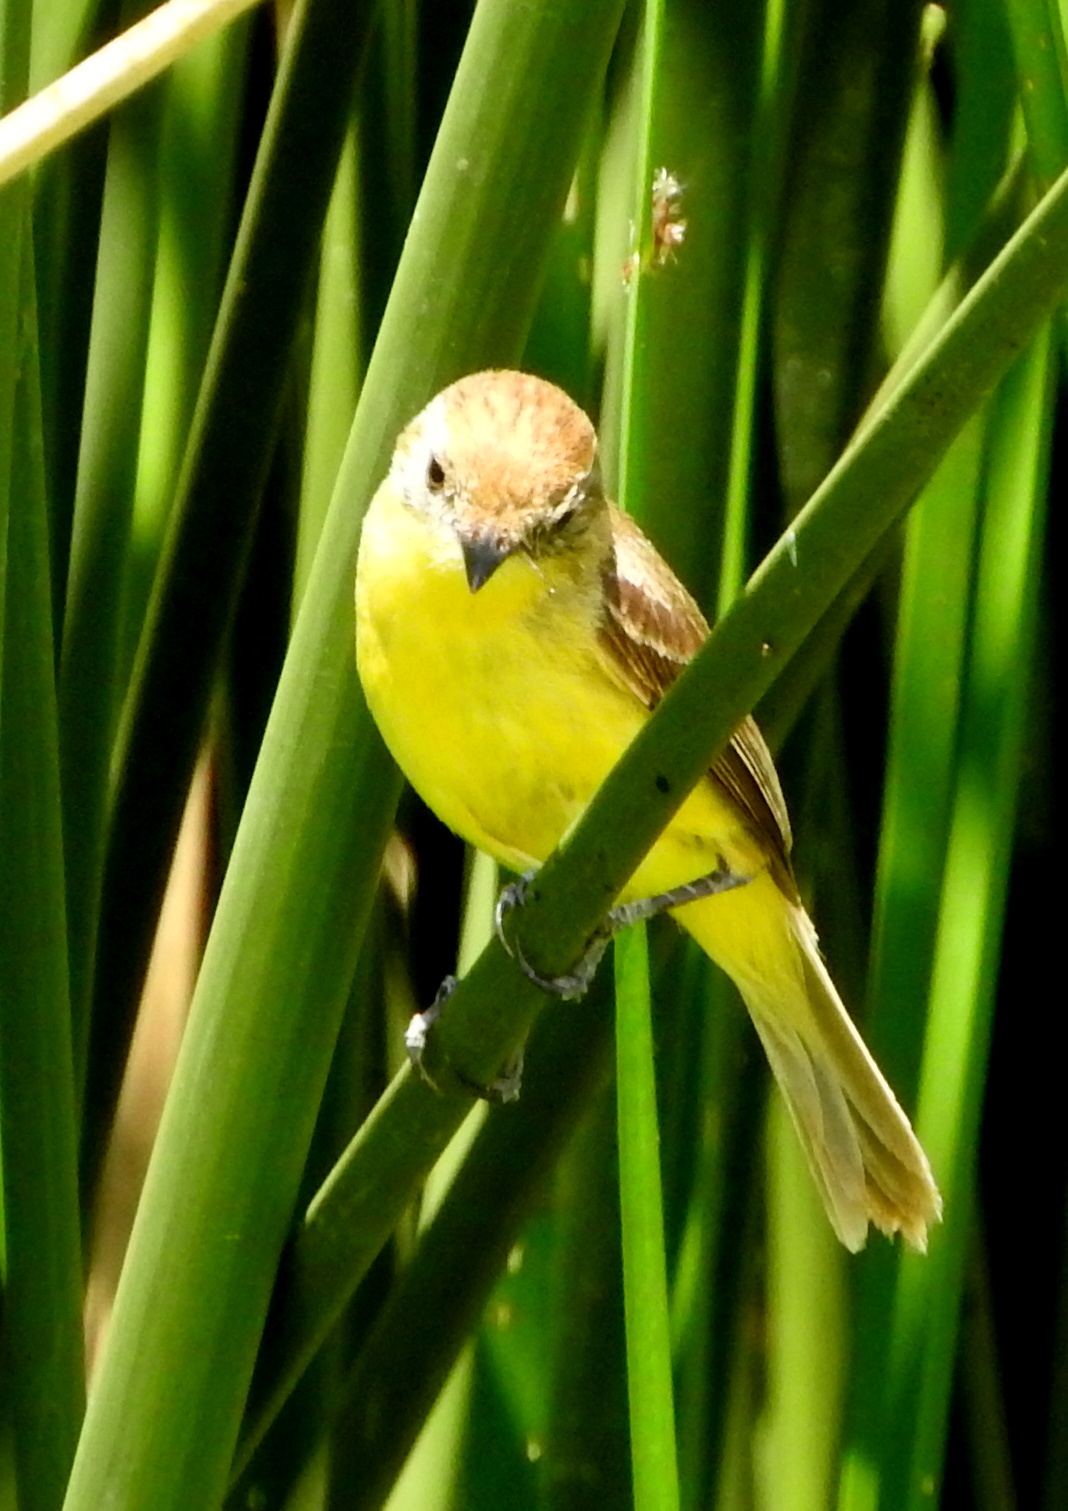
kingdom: Animalia
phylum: Chordata
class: Aves
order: Passeriformes
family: Tyrannidae
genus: Pseudocolopteryx
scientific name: Pseudocolopteryx flaviventris
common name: Warbling doradito
